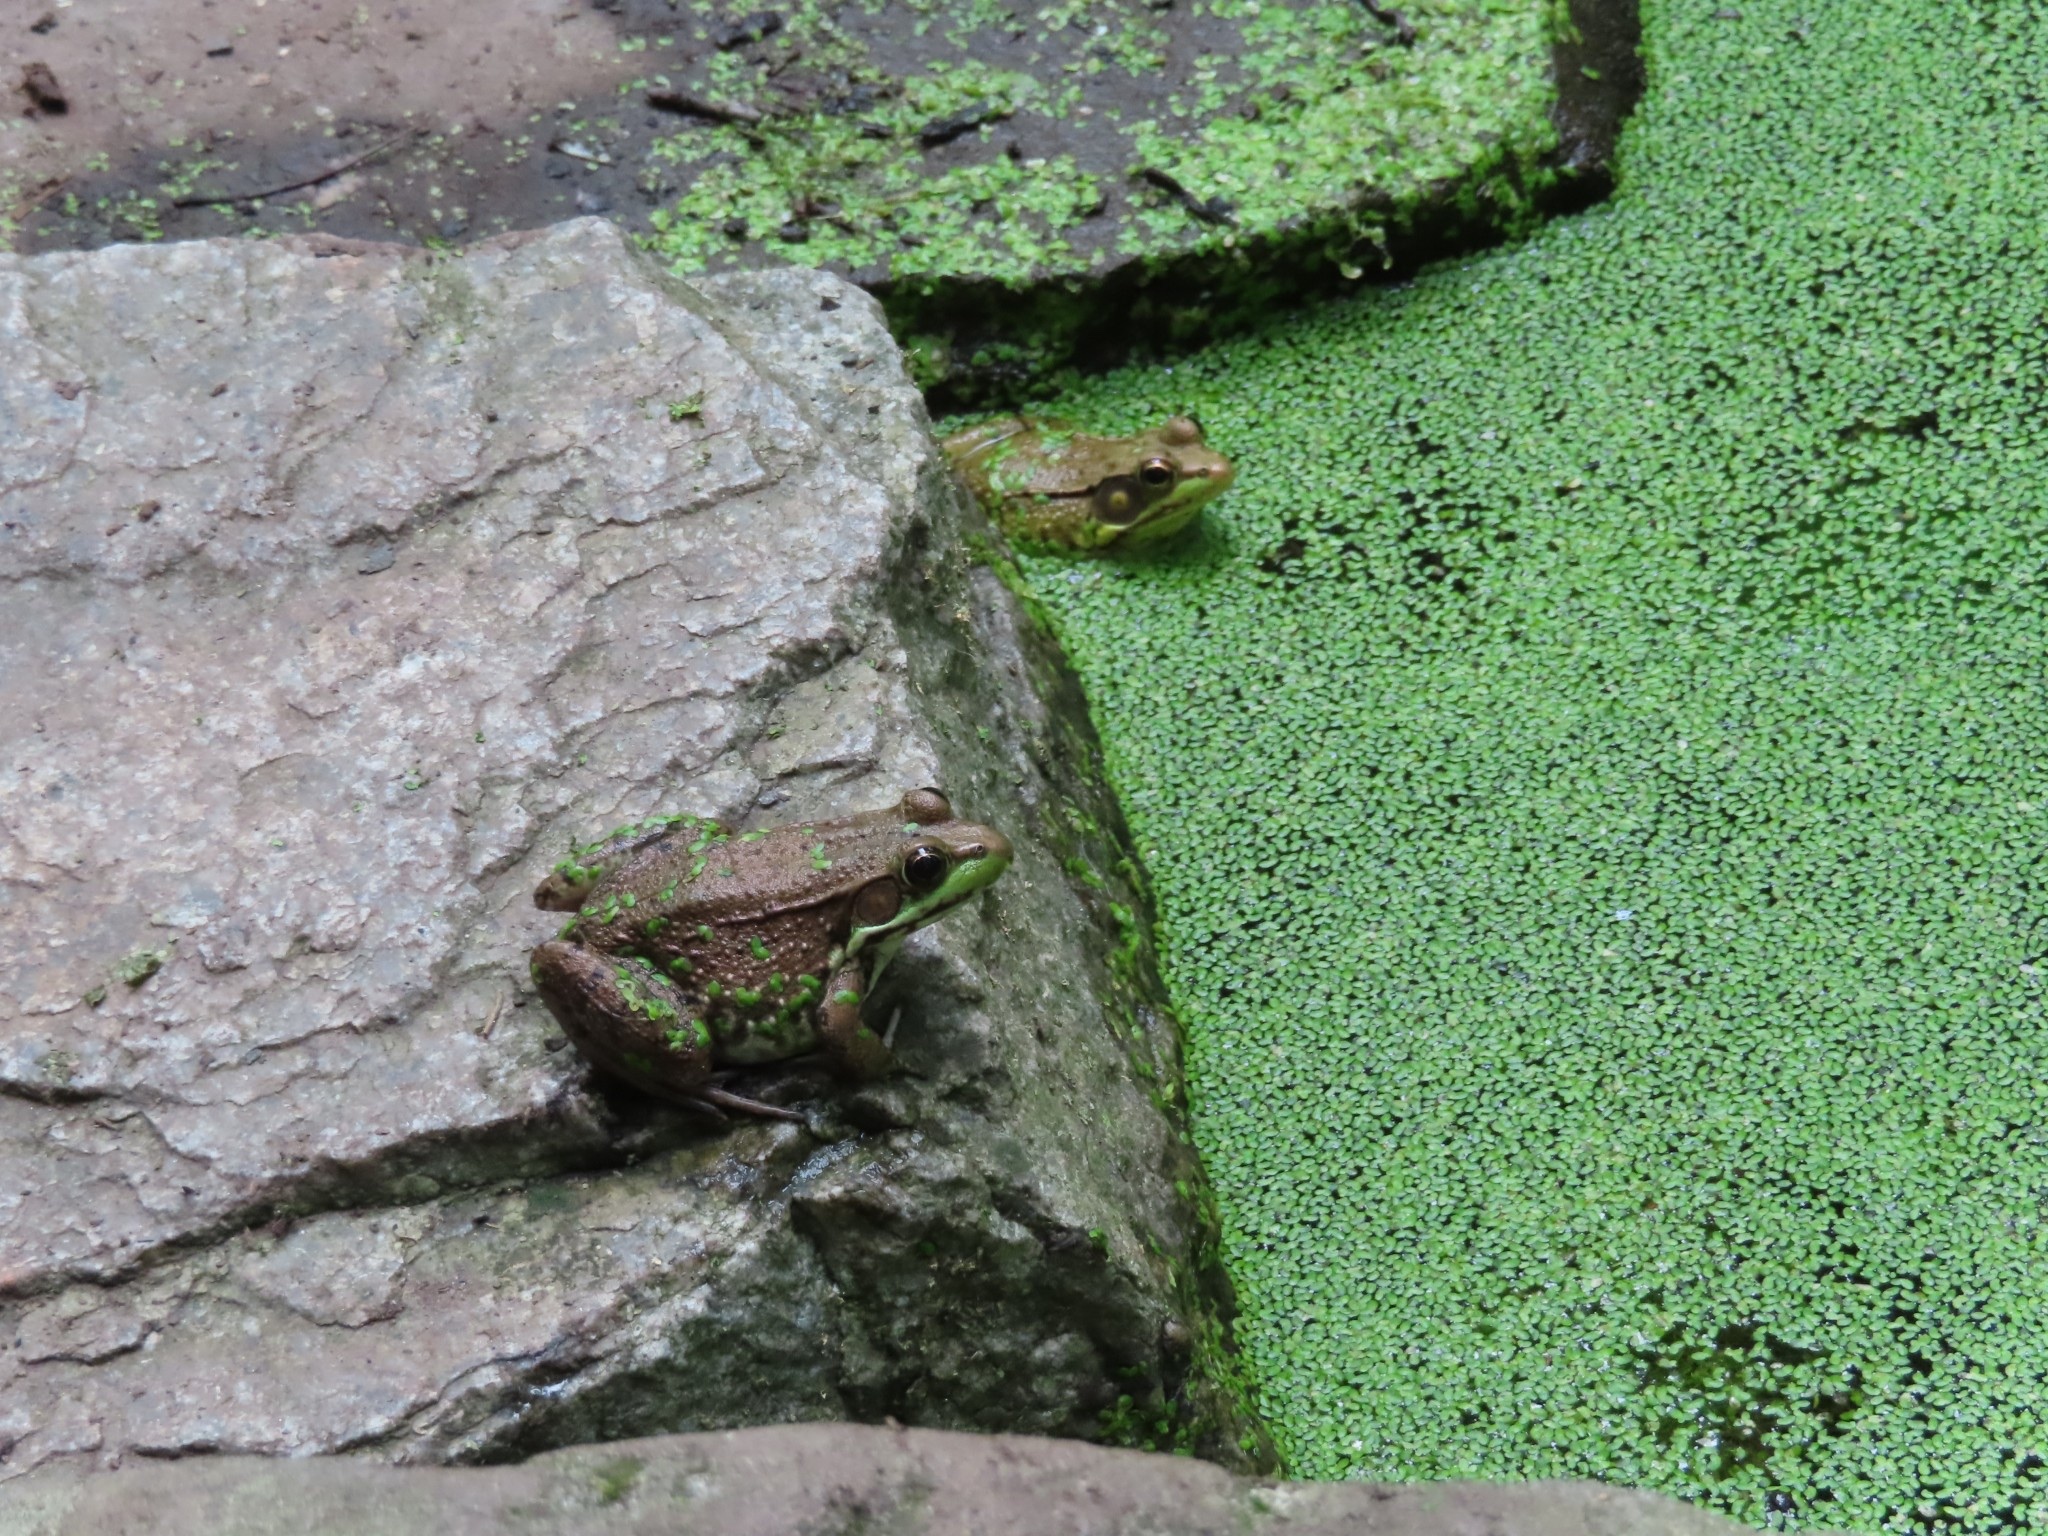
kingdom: Animalia
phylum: Chordata
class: Amphibia
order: Anura
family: Ranidae
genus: Lithobates
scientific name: Lithobates clamitans
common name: Green frog
